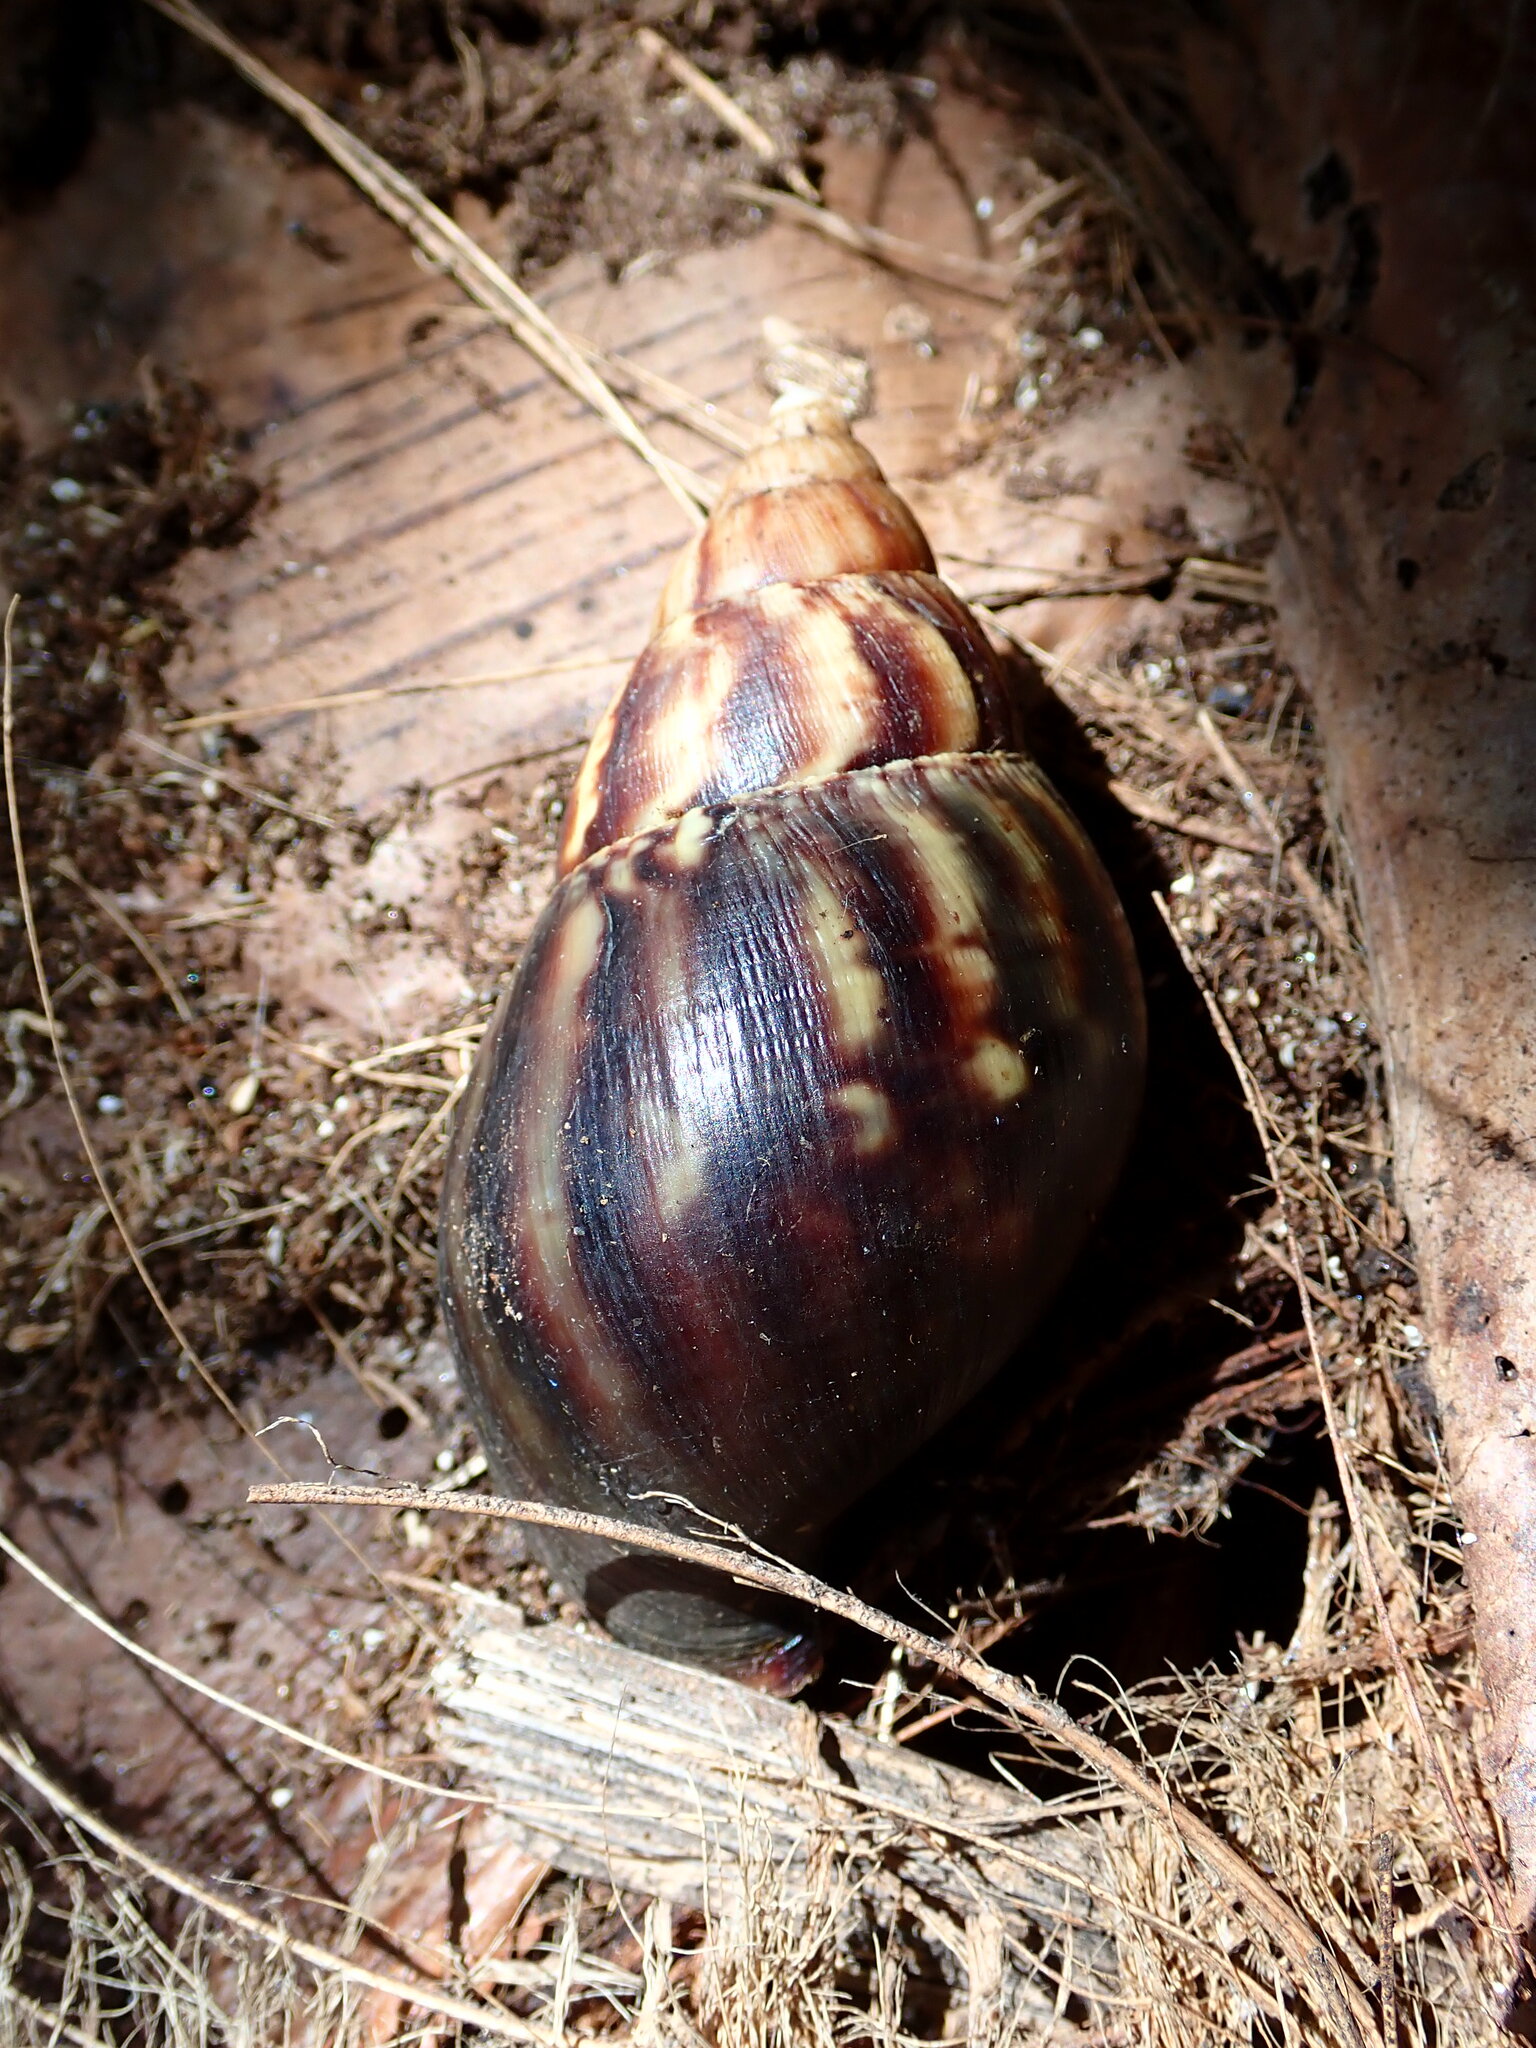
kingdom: Animalia
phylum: Mollusca
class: Gastropoda
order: Stylommatophora
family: Achatinidae
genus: Lissachatina
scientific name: Lissachatina fulica
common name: Giant african snail
